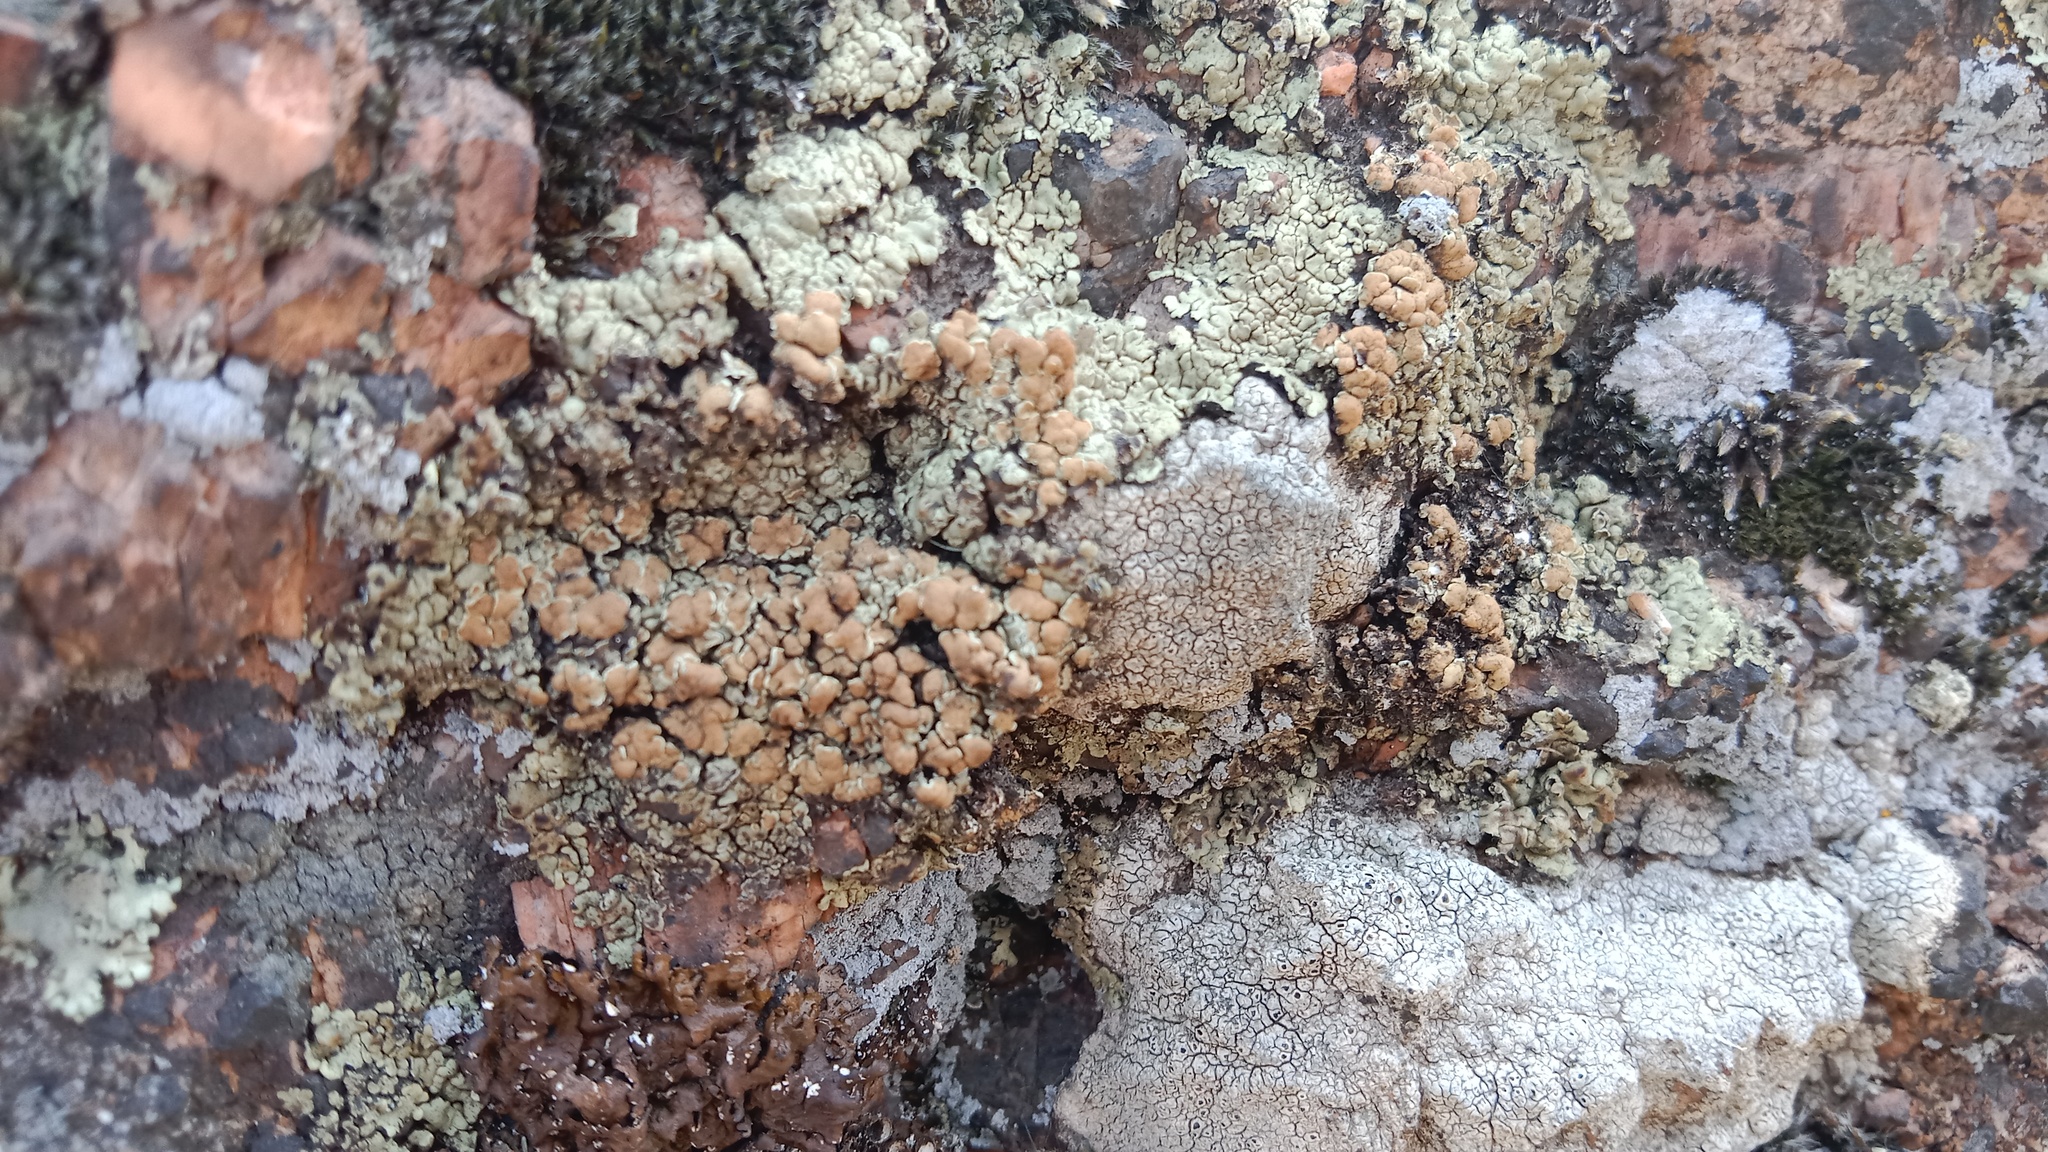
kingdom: Fungi
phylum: Ascomycota
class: Lecanoromycetes
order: Lecanorales
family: Lecanoraceae
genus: Protoparmeliopsis
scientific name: Protoparmeliopsis muralis
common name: Stonewall rim lichen
